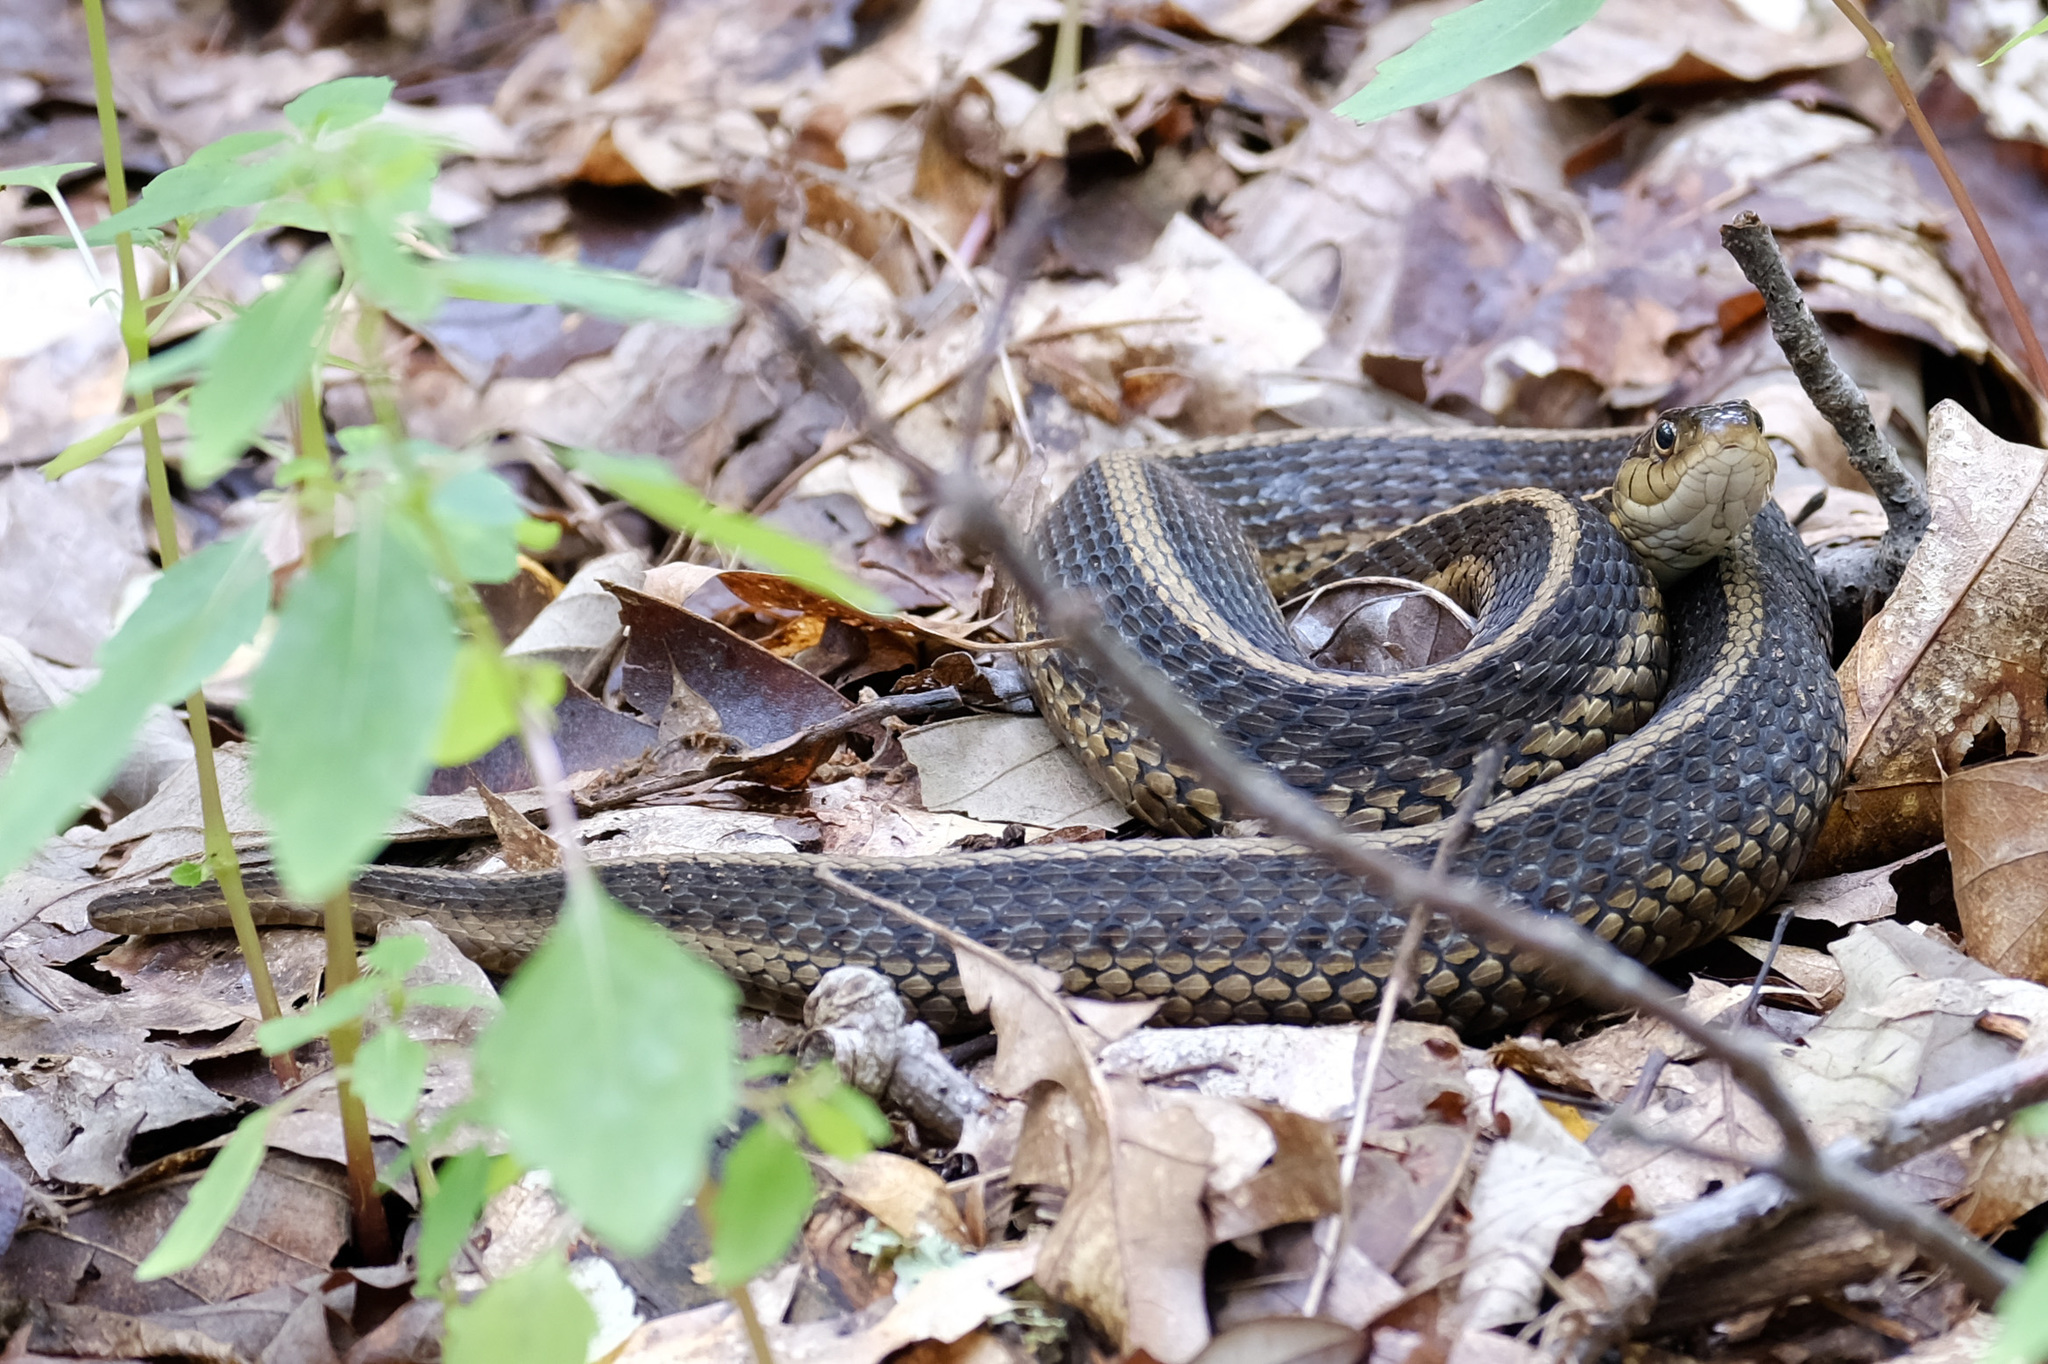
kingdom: Animalia
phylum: Chordata
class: Squamata
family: Colubridae
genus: Thamnophis
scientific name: Thamnophis sirtalis
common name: Common garter snake
